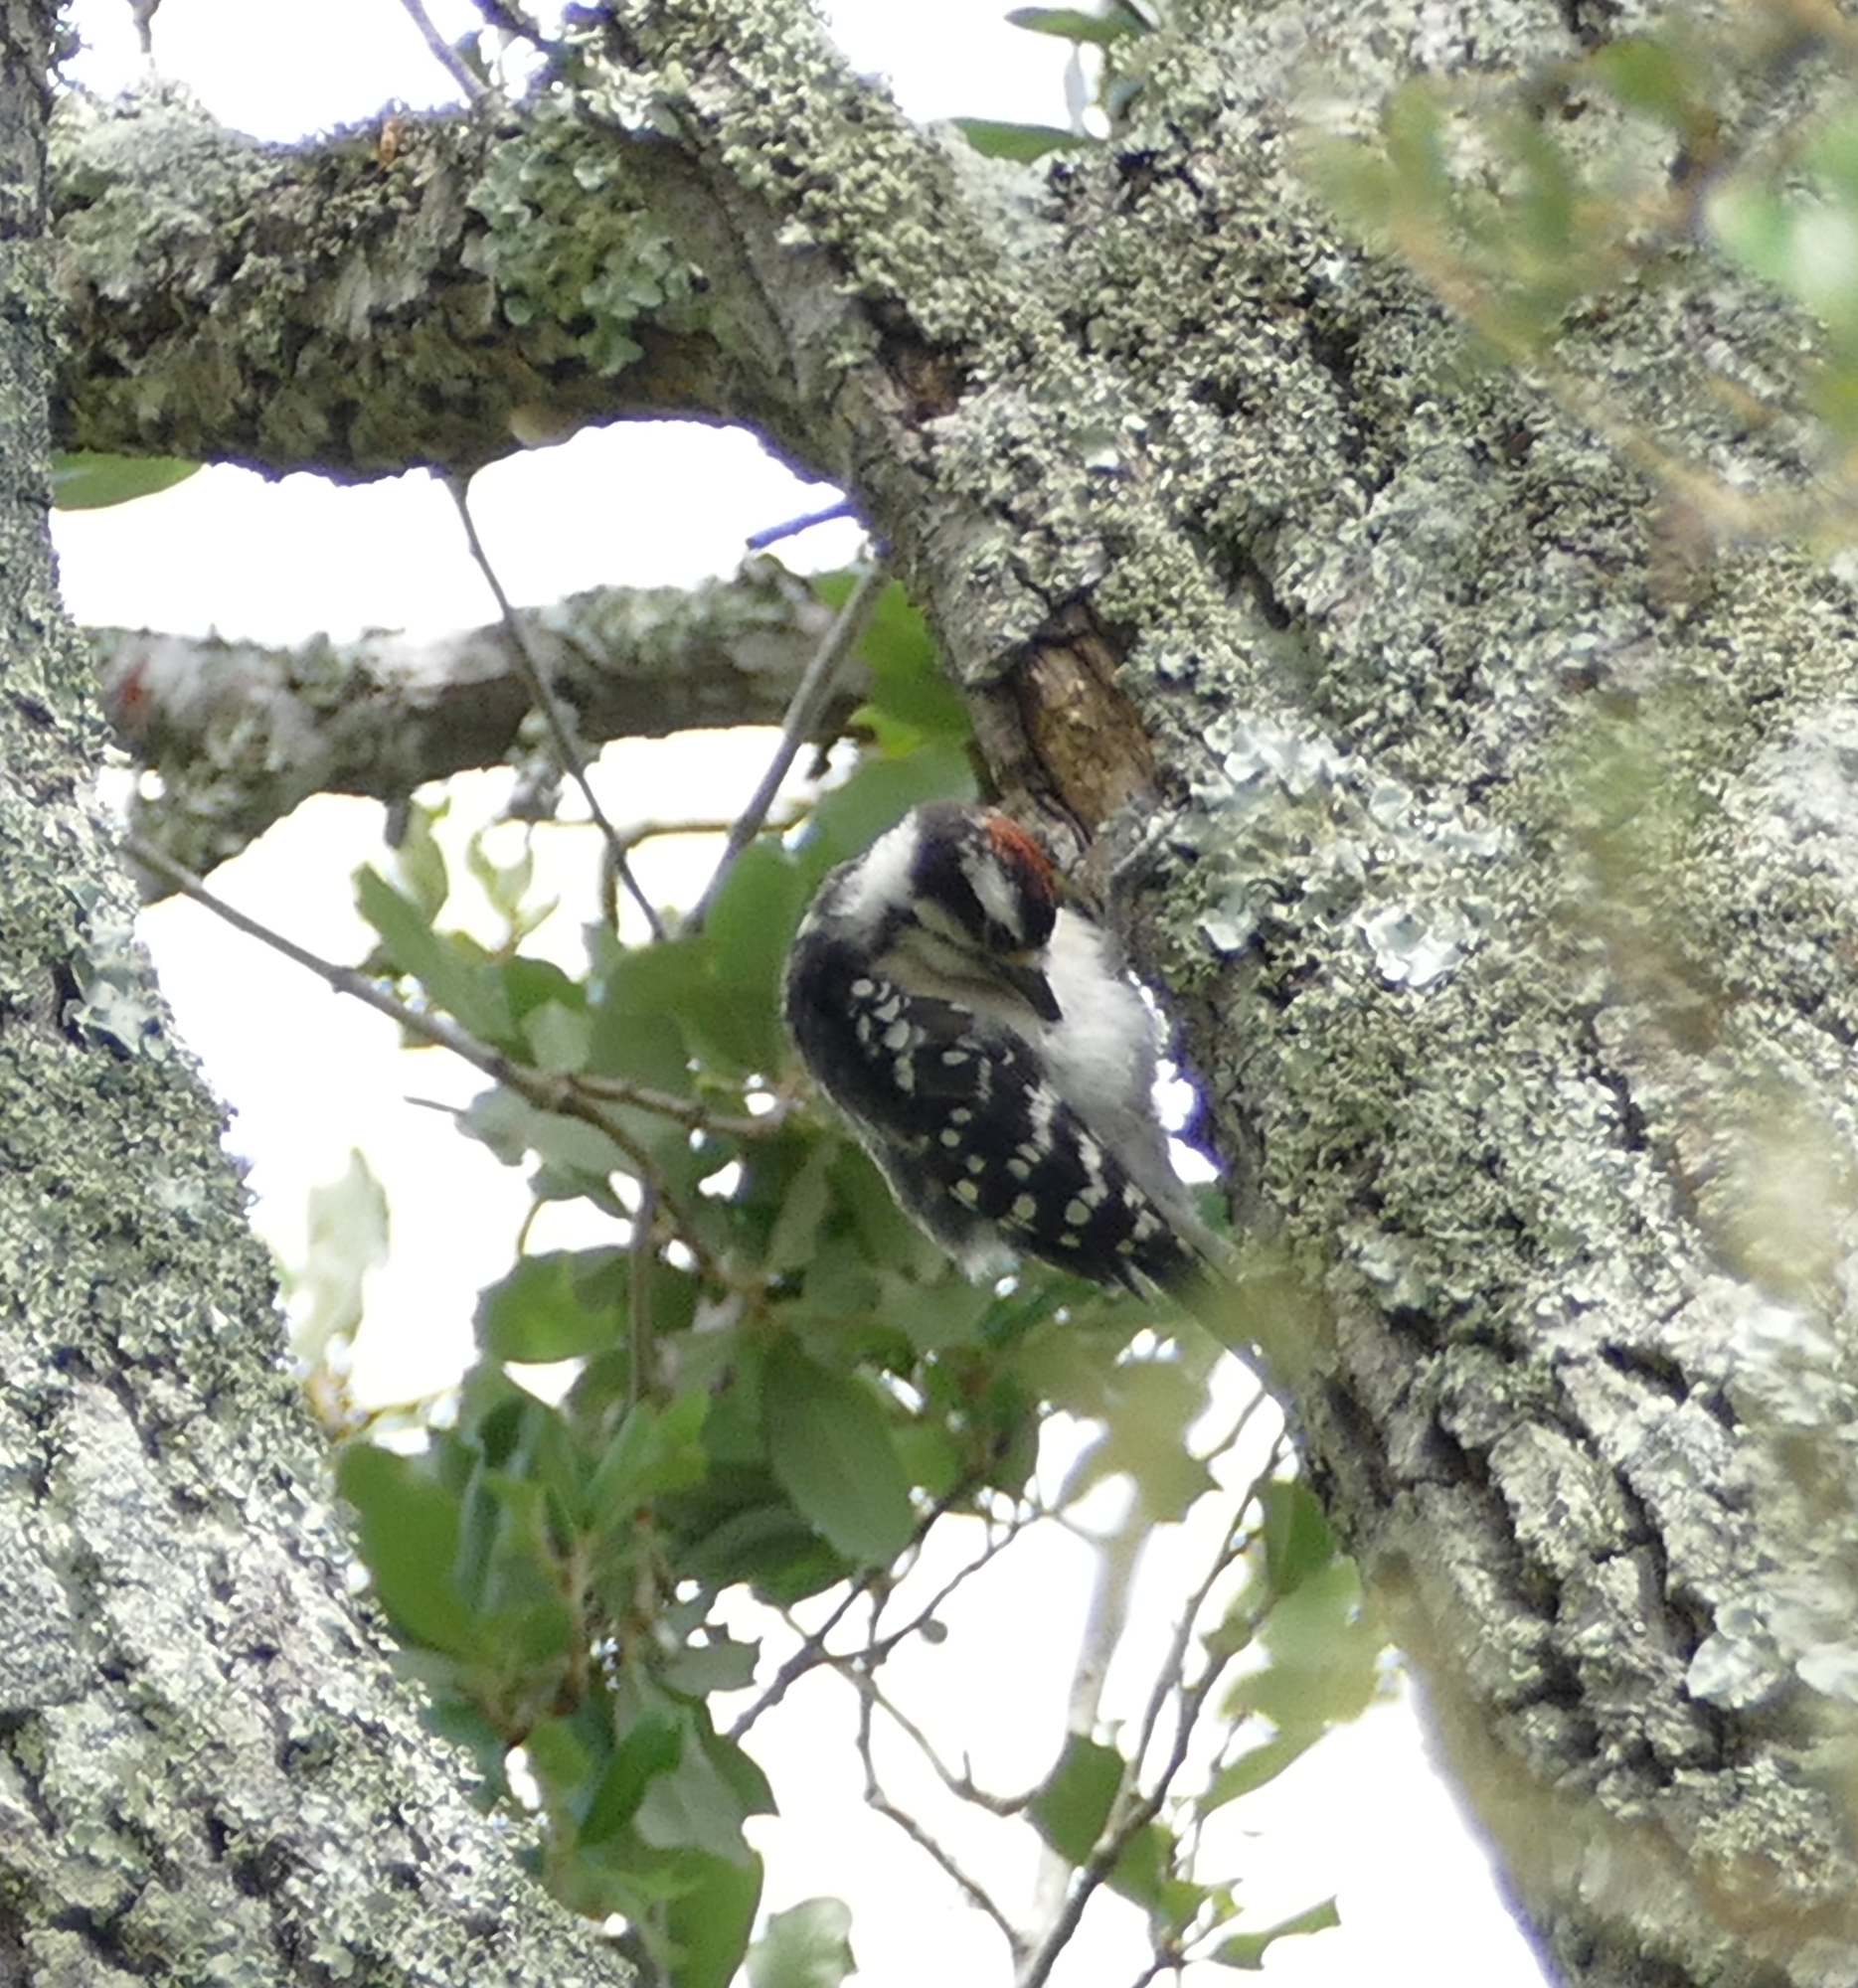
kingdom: Animalia
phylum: Chordata
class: Aves
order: Piciformes
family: Picidae
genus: Dryobates
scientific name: Dryobates pubescens
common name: Downy woodpecker
